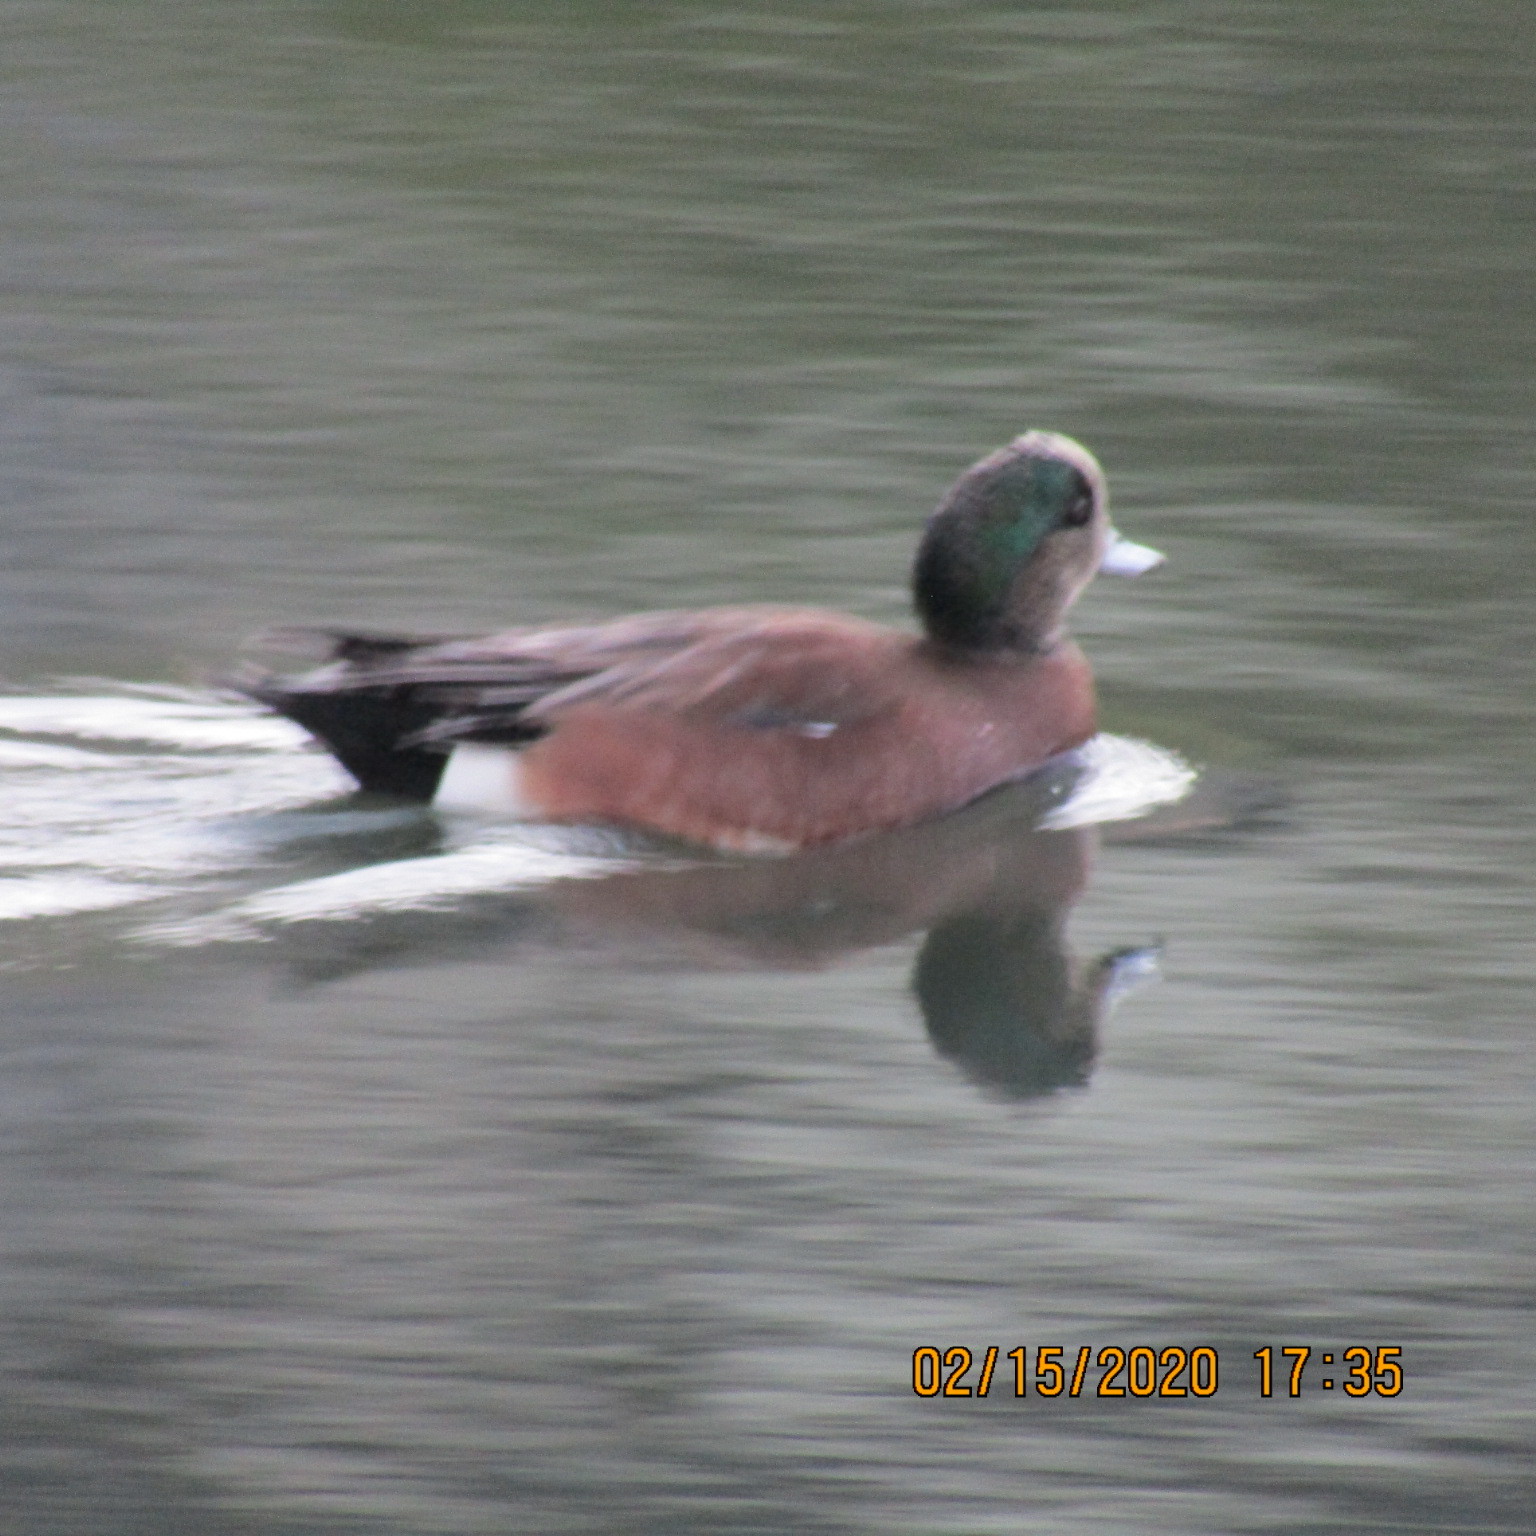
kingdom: Animalia
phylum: Chordata
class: Aves
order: Anseriformes
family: Anatidae
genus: Mareca
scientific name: Mareca americana
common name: American wigeon
